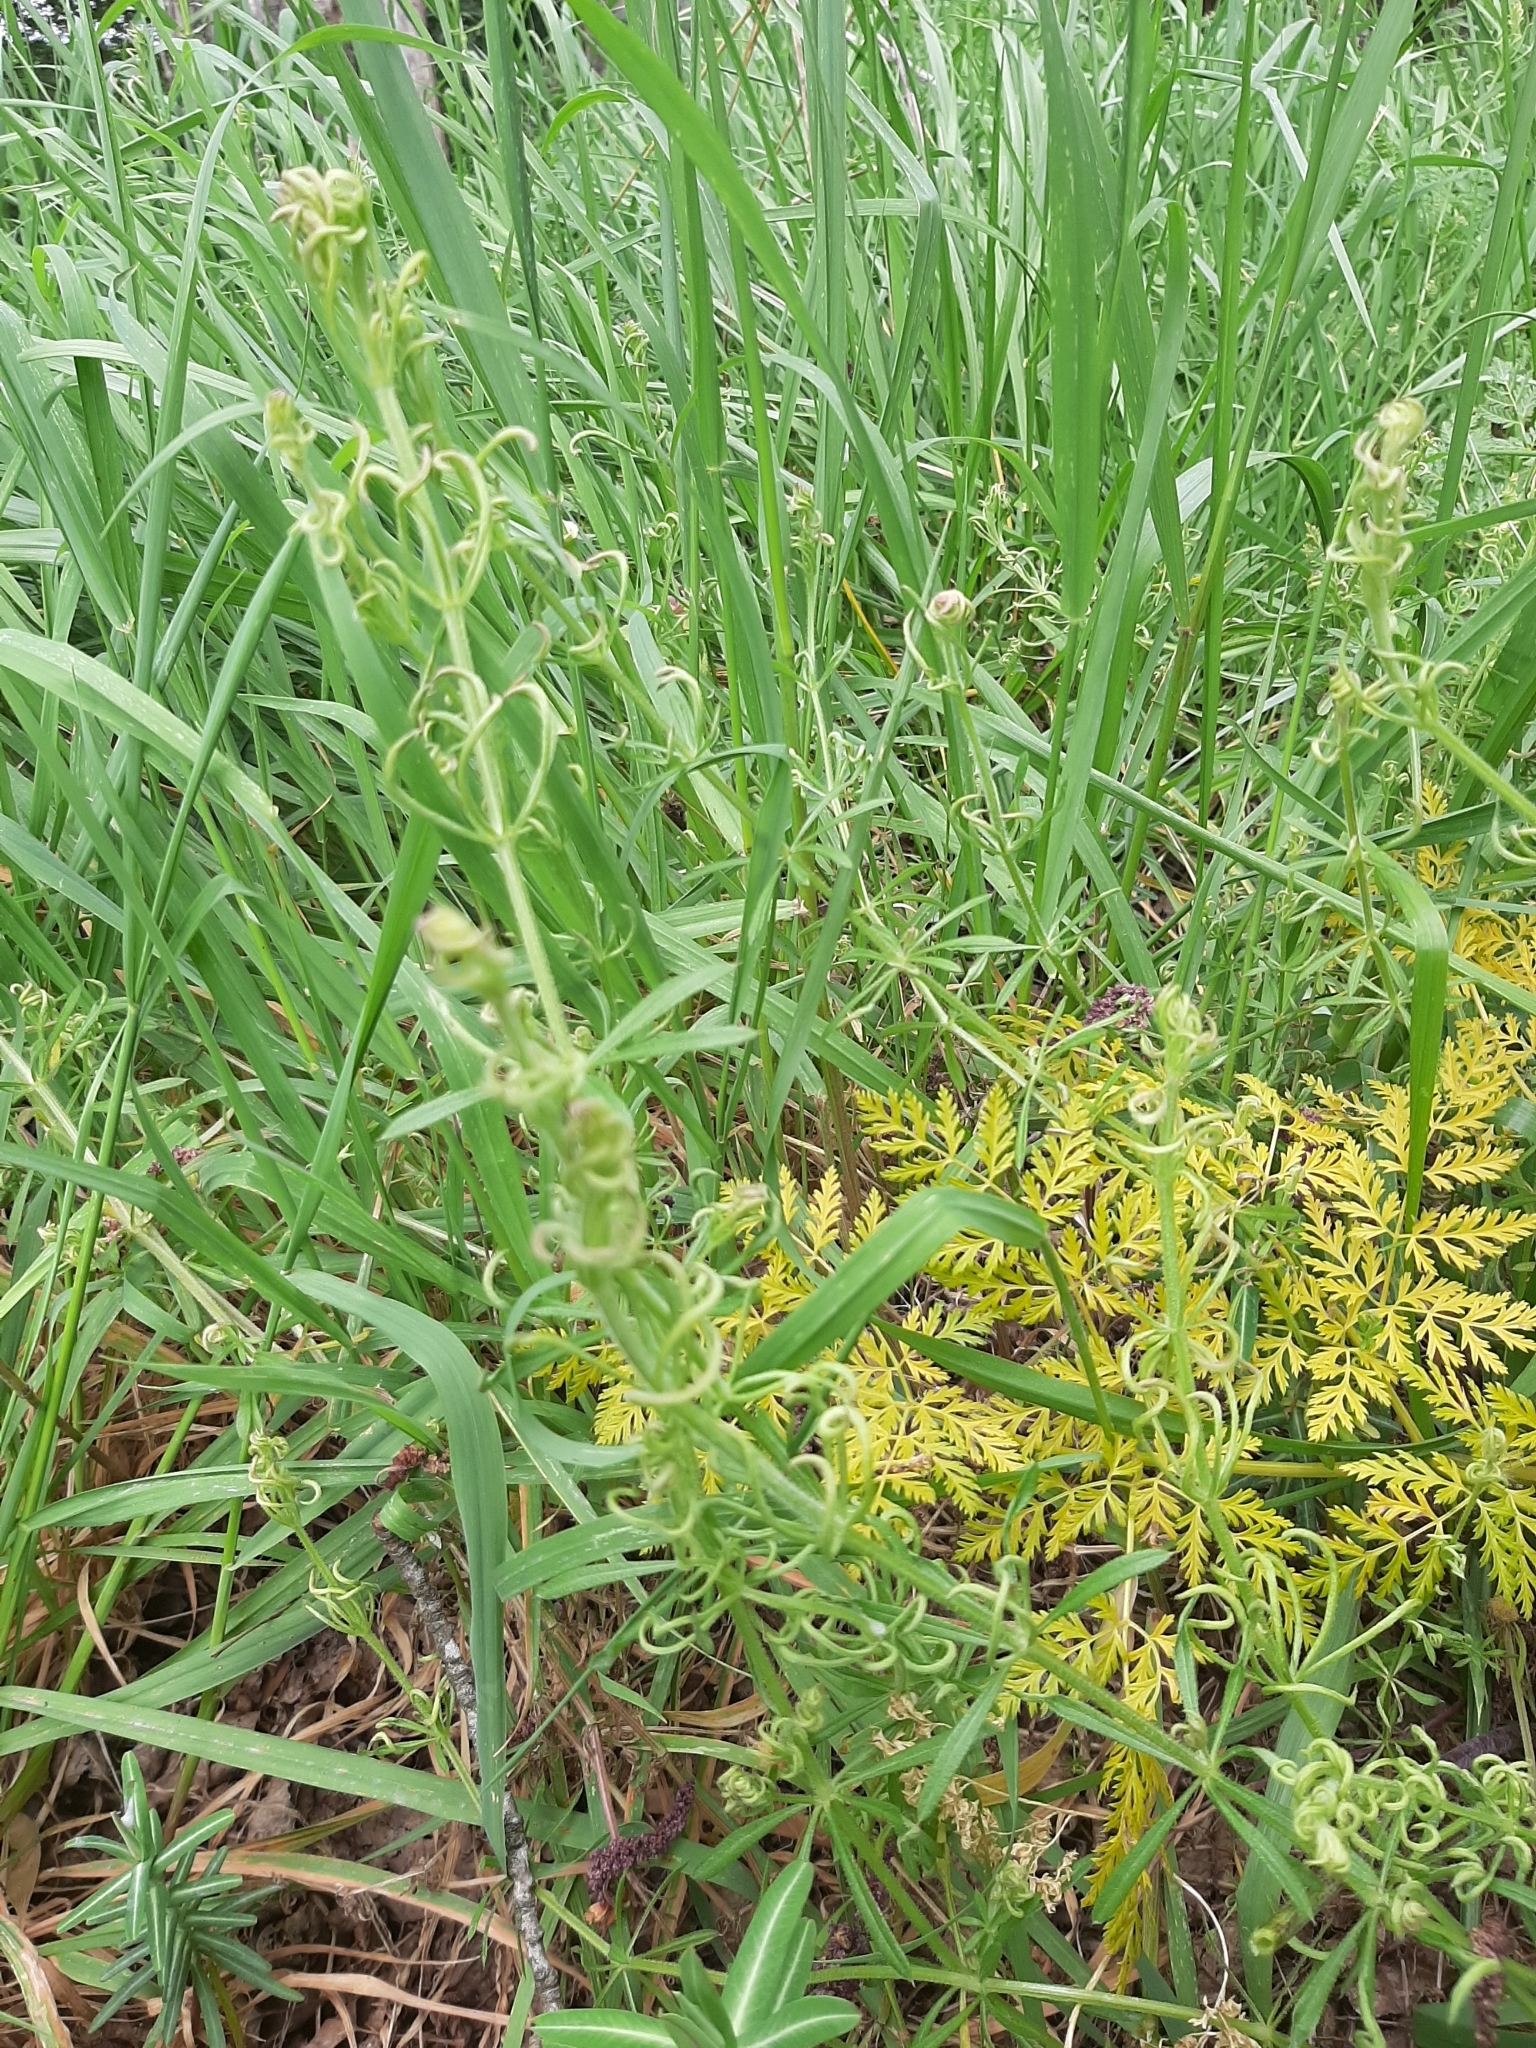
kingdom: Plantae
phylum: Tracheophyta
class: Magnoliopsida
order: Gentianales
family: Rubiaceae
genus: Galium
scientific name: Galium aparine
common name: Cleavers
